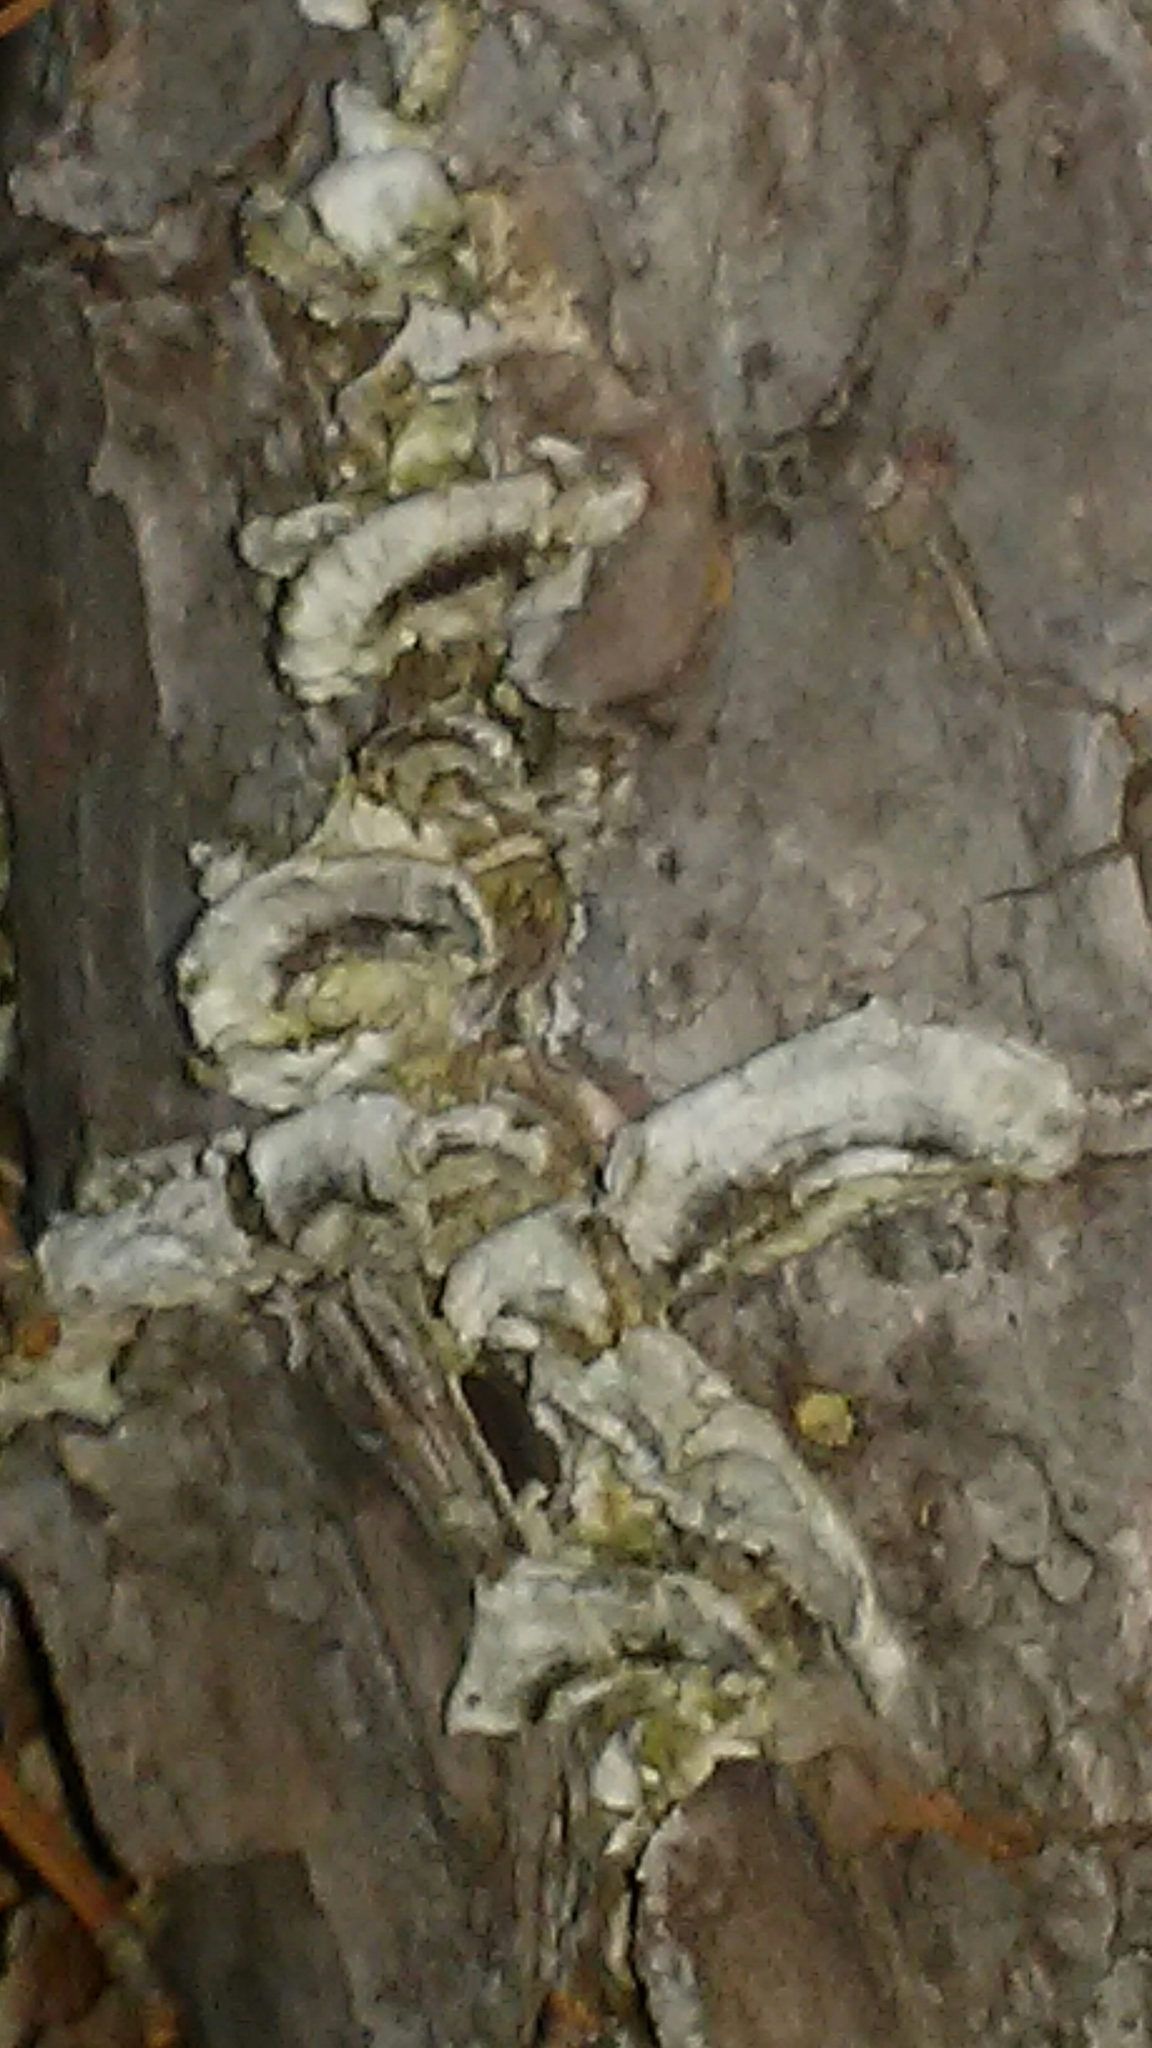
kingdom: Fungi
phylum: Basidiomycota
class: Agaricomycetes
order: Hymenochaetales
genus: Trichaptum
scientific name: Trichaptum abietinum
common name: Purplepore bracket
